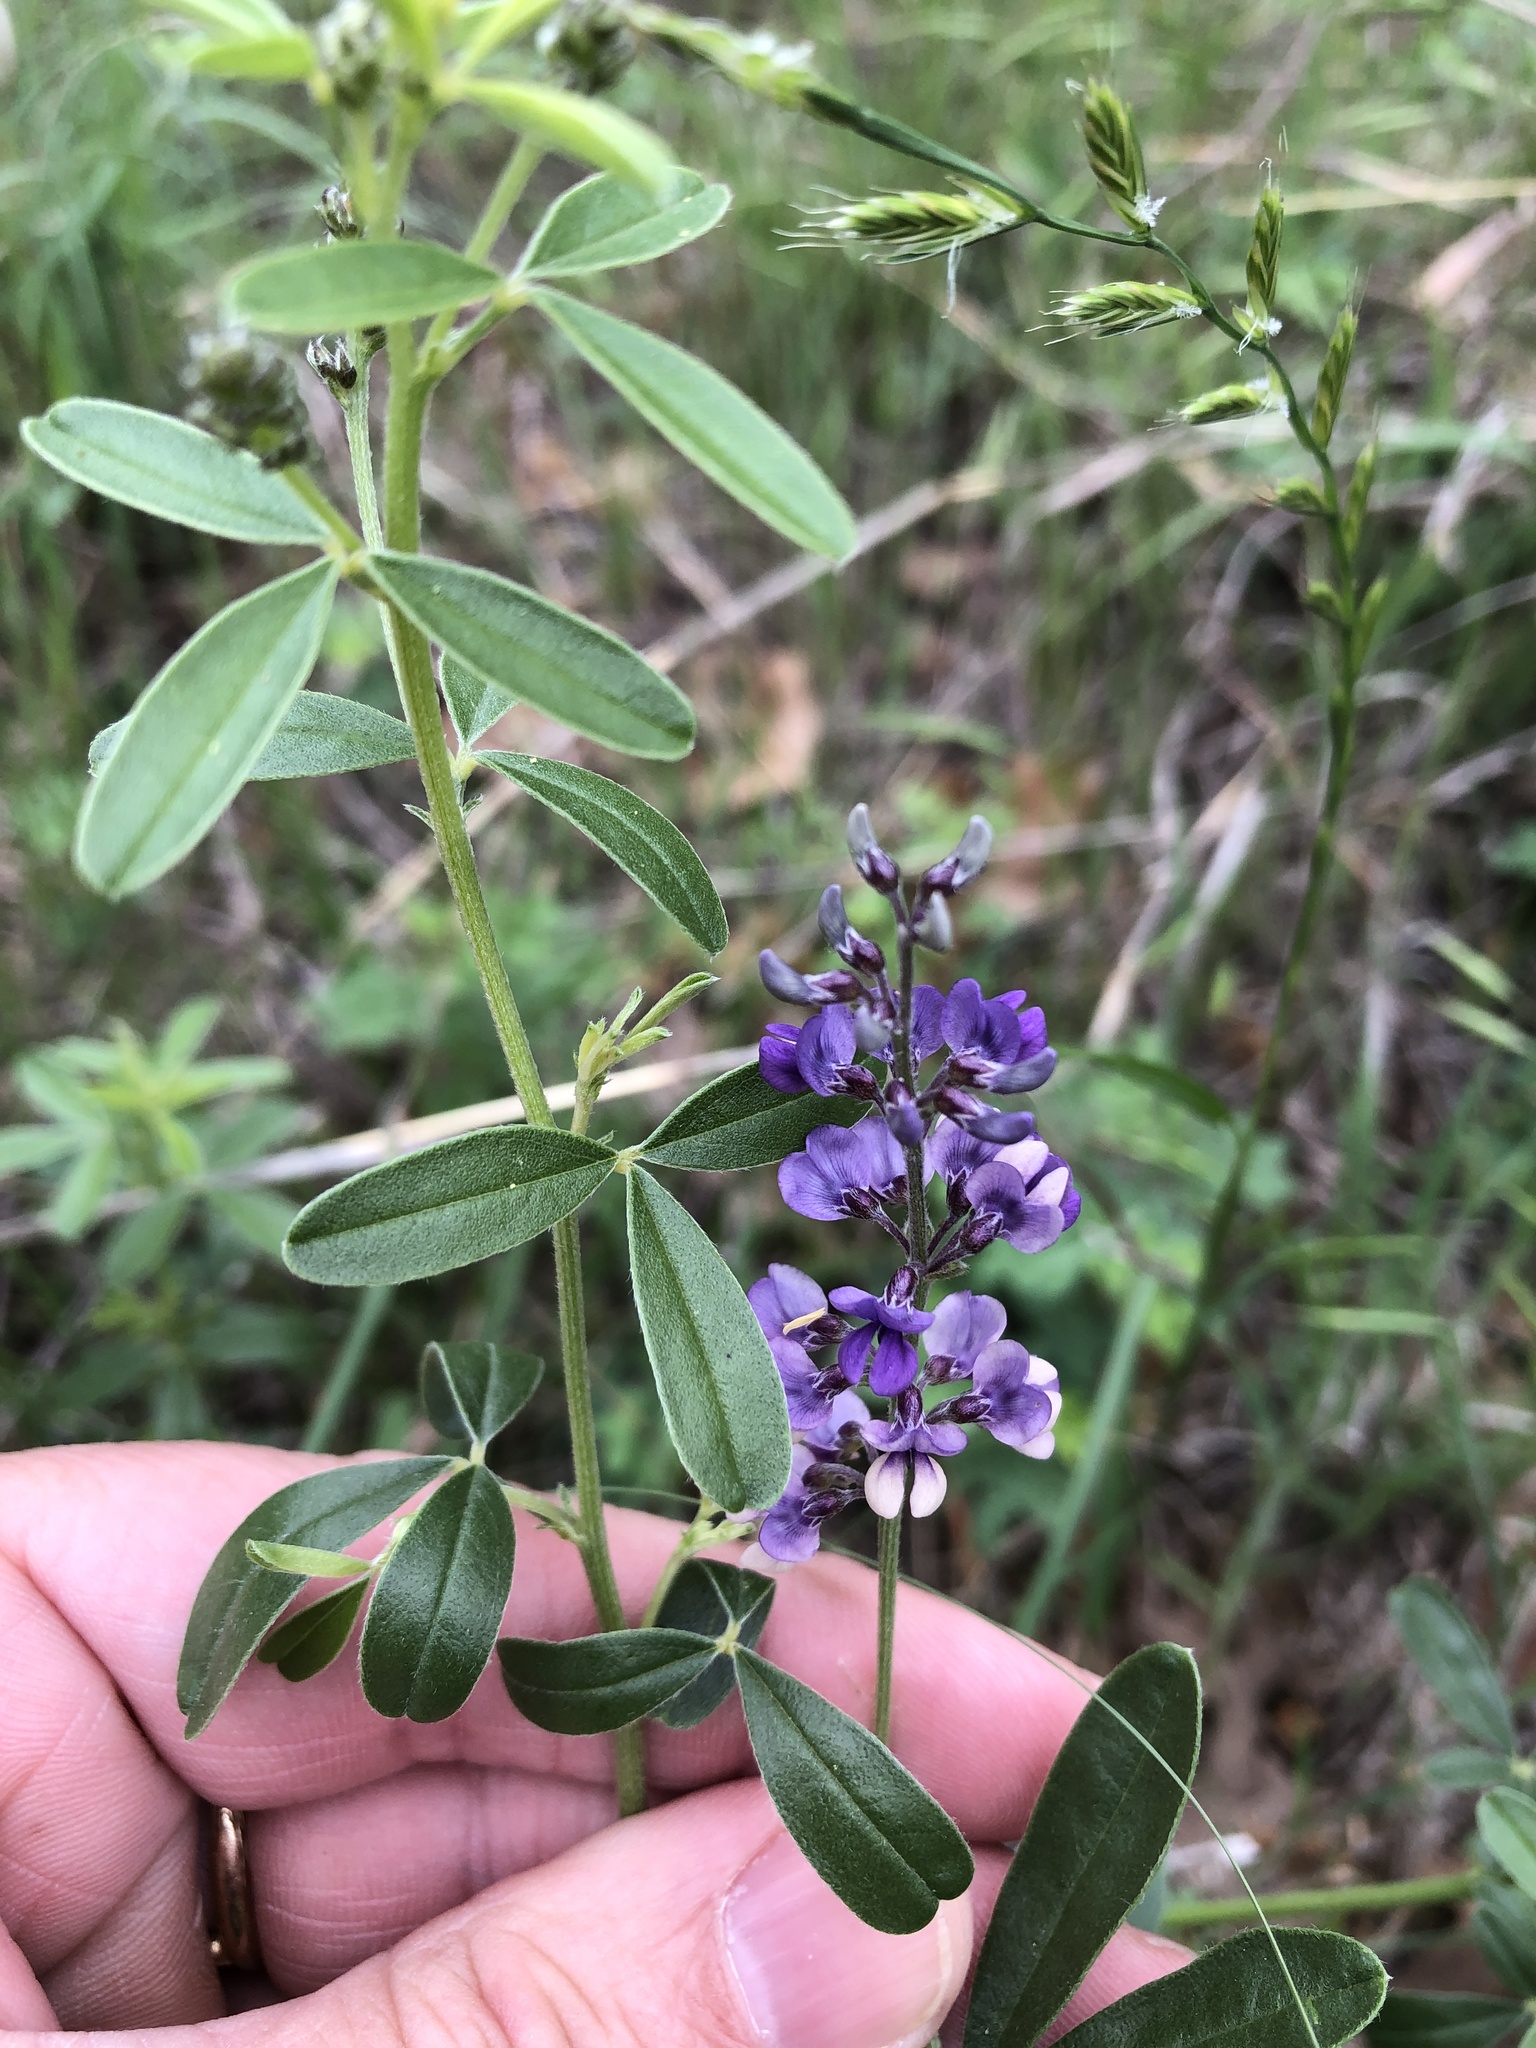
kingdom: Plantae
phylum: Tracheophyta
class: Magnoliopsida
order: Fabales
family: Fabaceae
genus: Pediomelum
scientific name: Pediomelum tenuiflorum
